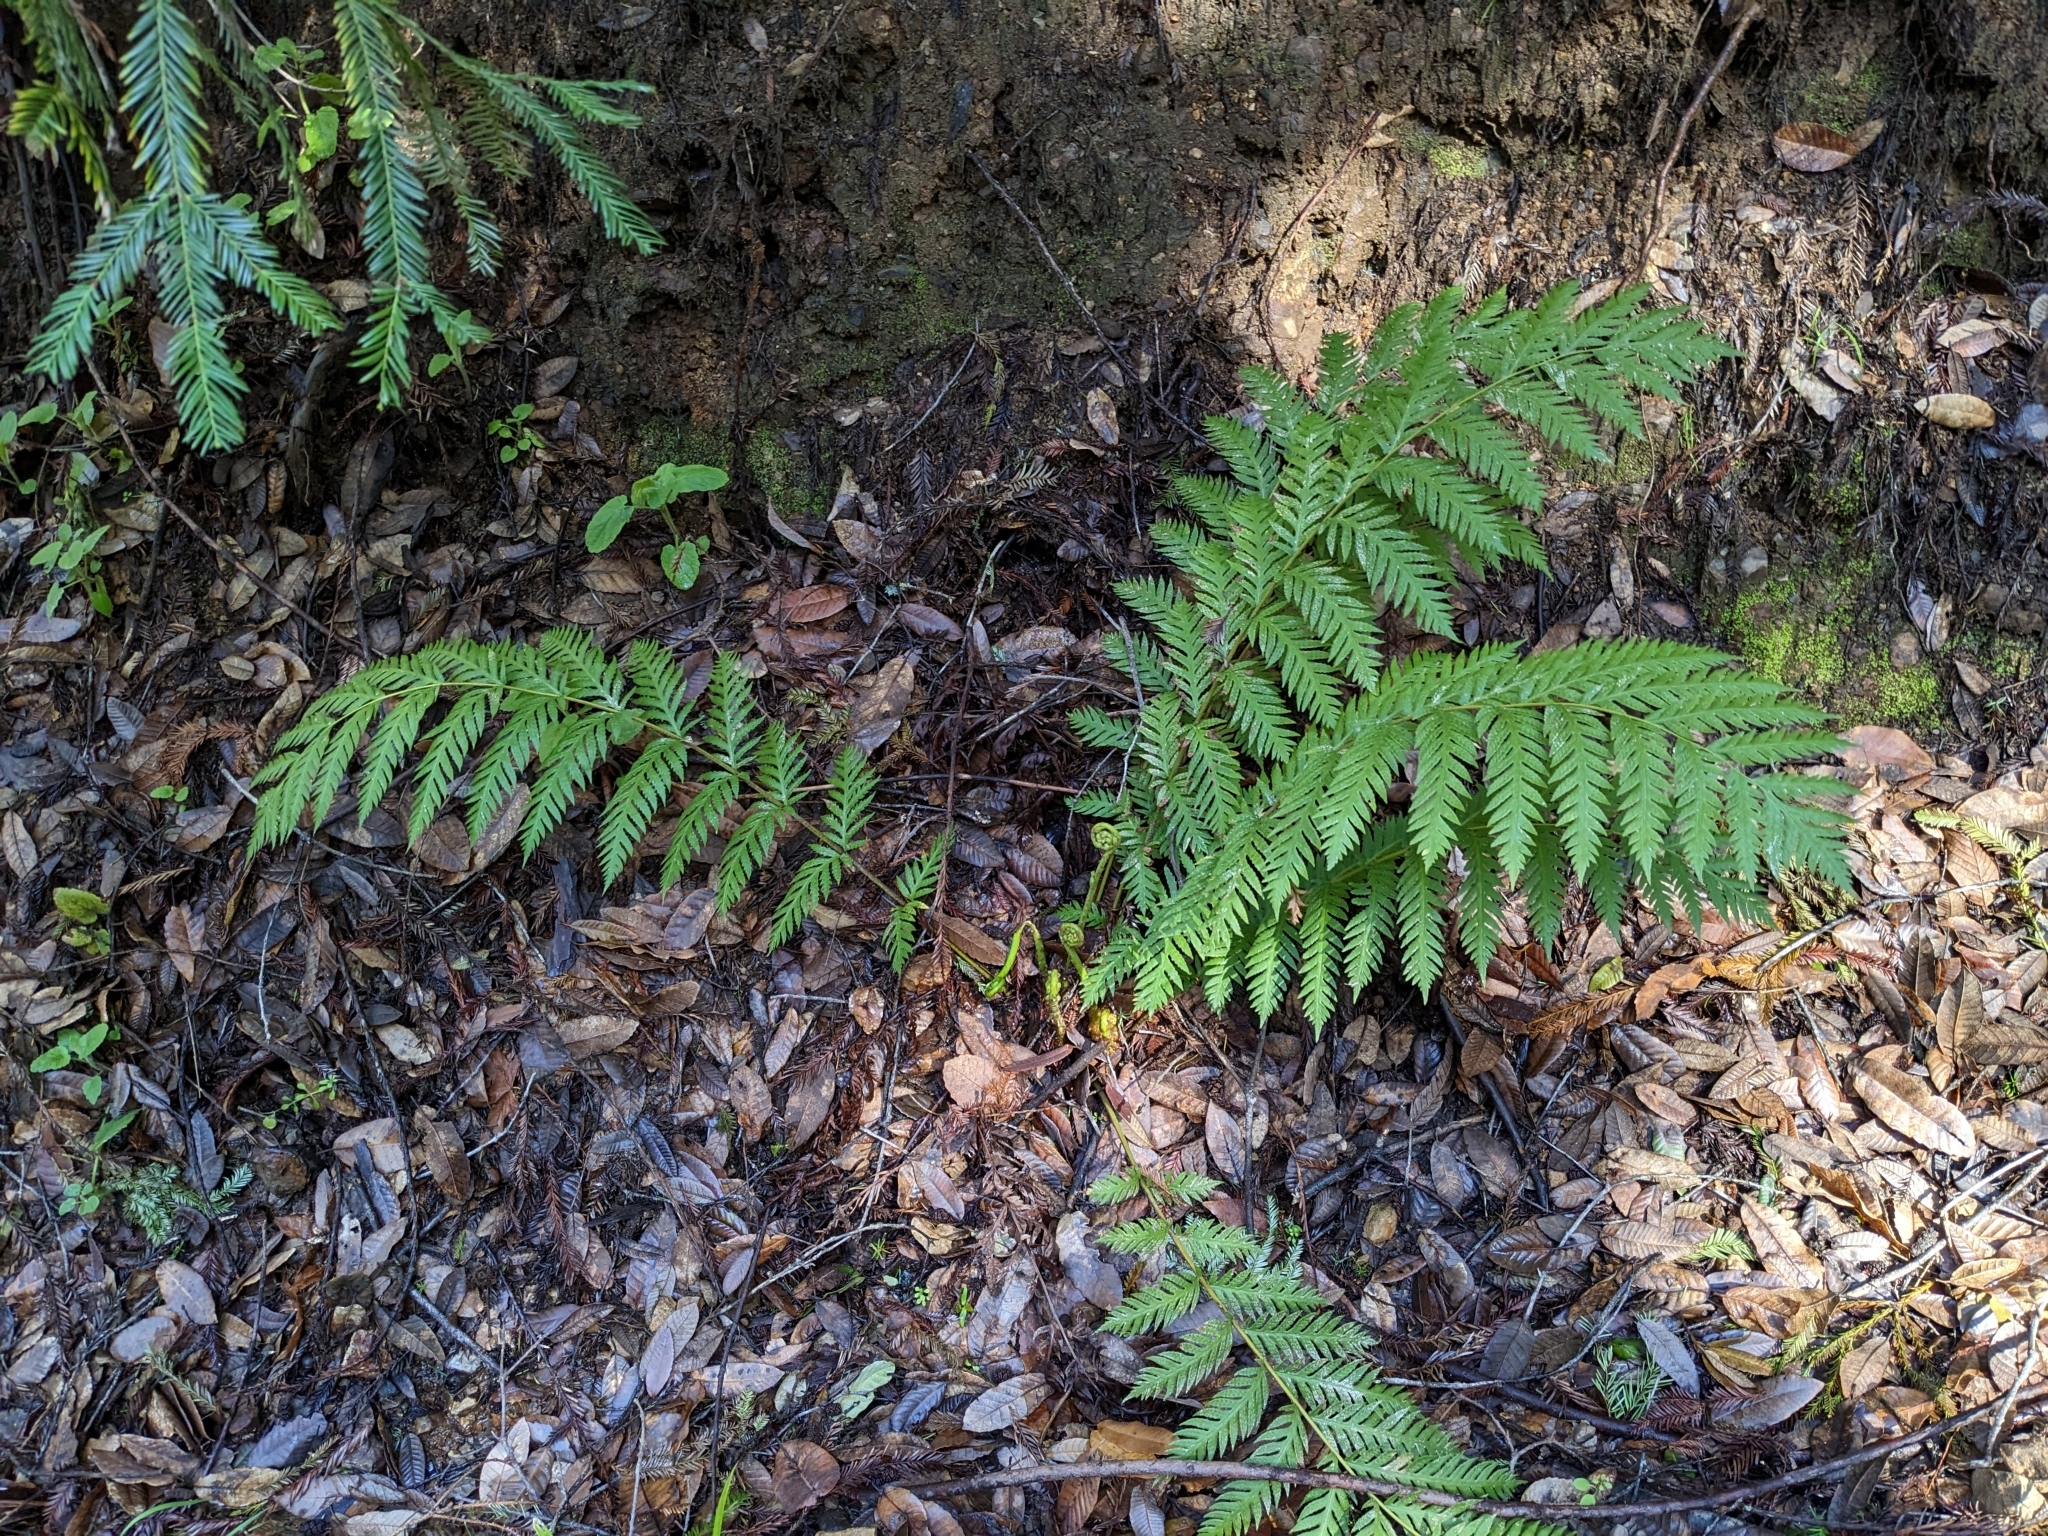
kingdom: Plantae
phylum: Tracheophyta
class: Polypodiopsida
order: Polypodiales
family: Blechnaceae
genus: Woodwardia
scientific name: Woodwardia fimbriata
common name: Giant chain fern
